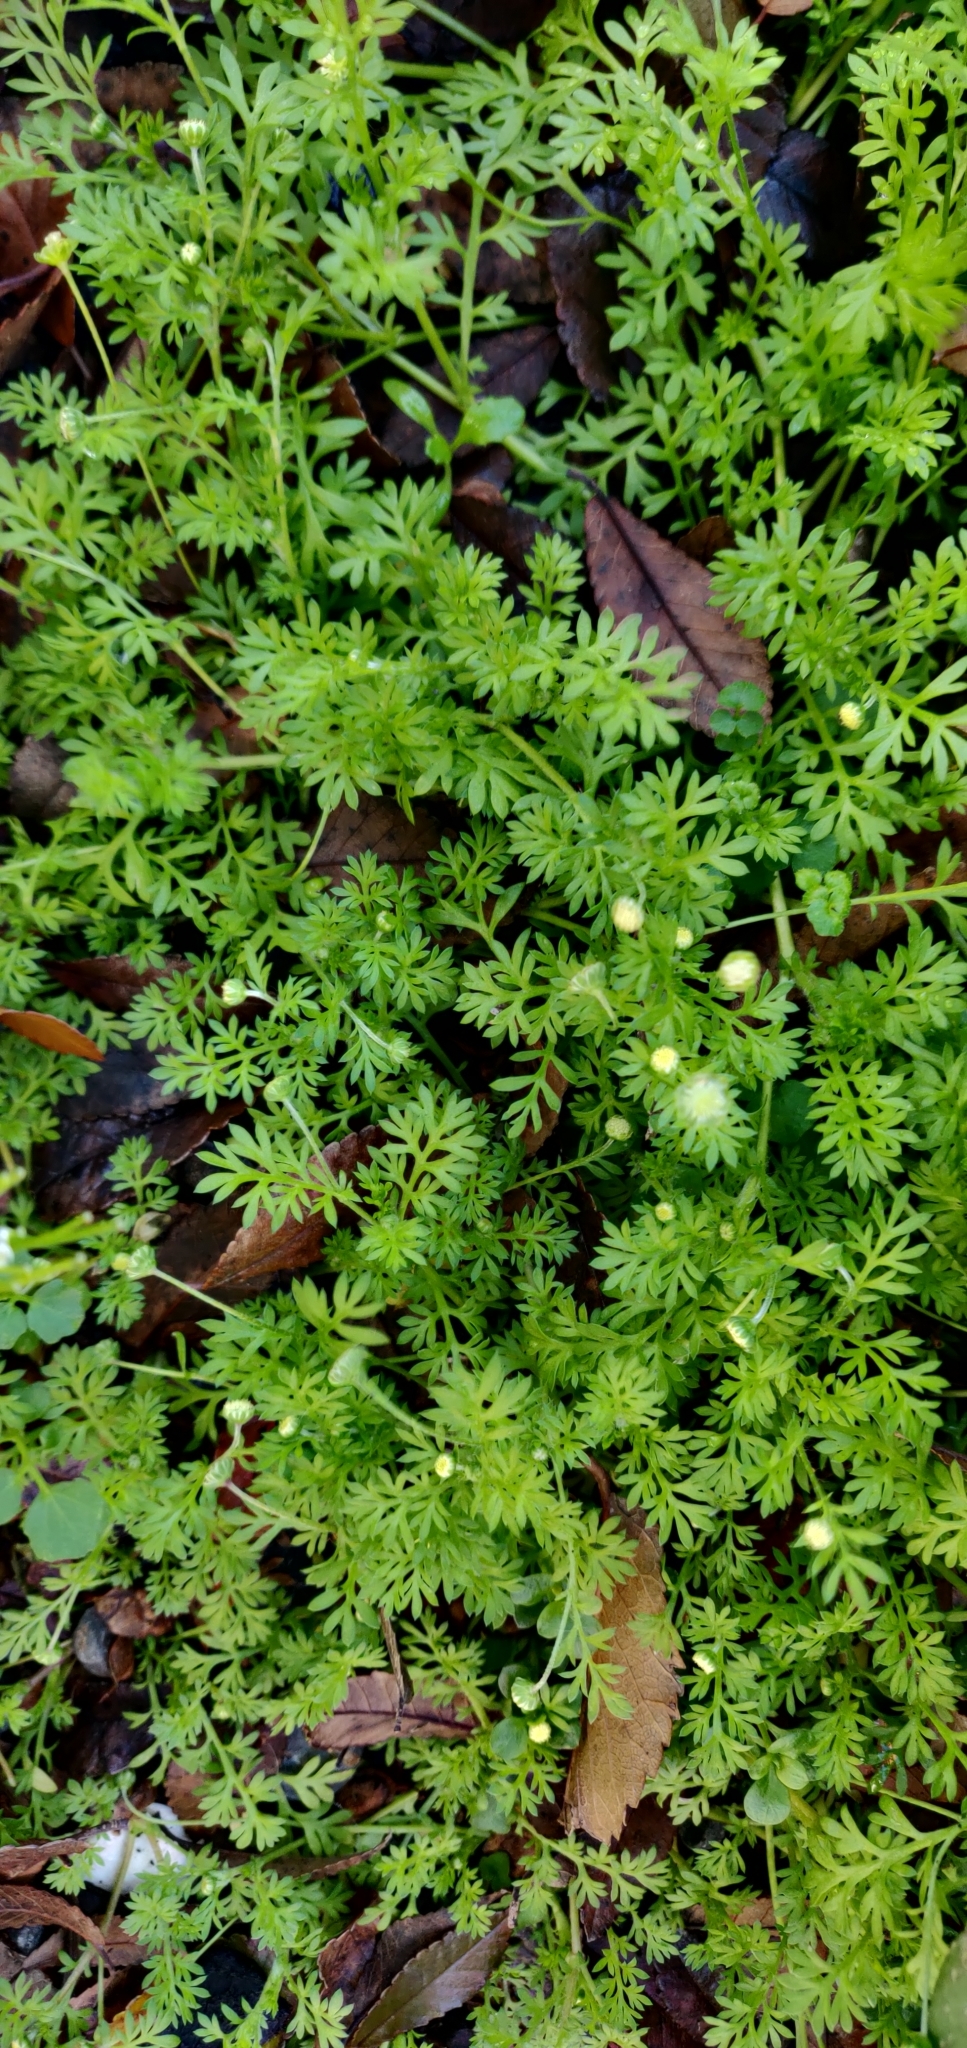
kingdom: Plantae
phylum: Tracheophyta
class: Magnoliopsida
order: Asterales
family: Asteraceae
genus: Cotula
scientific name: Cotula australis
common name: Australian waterbuttons
